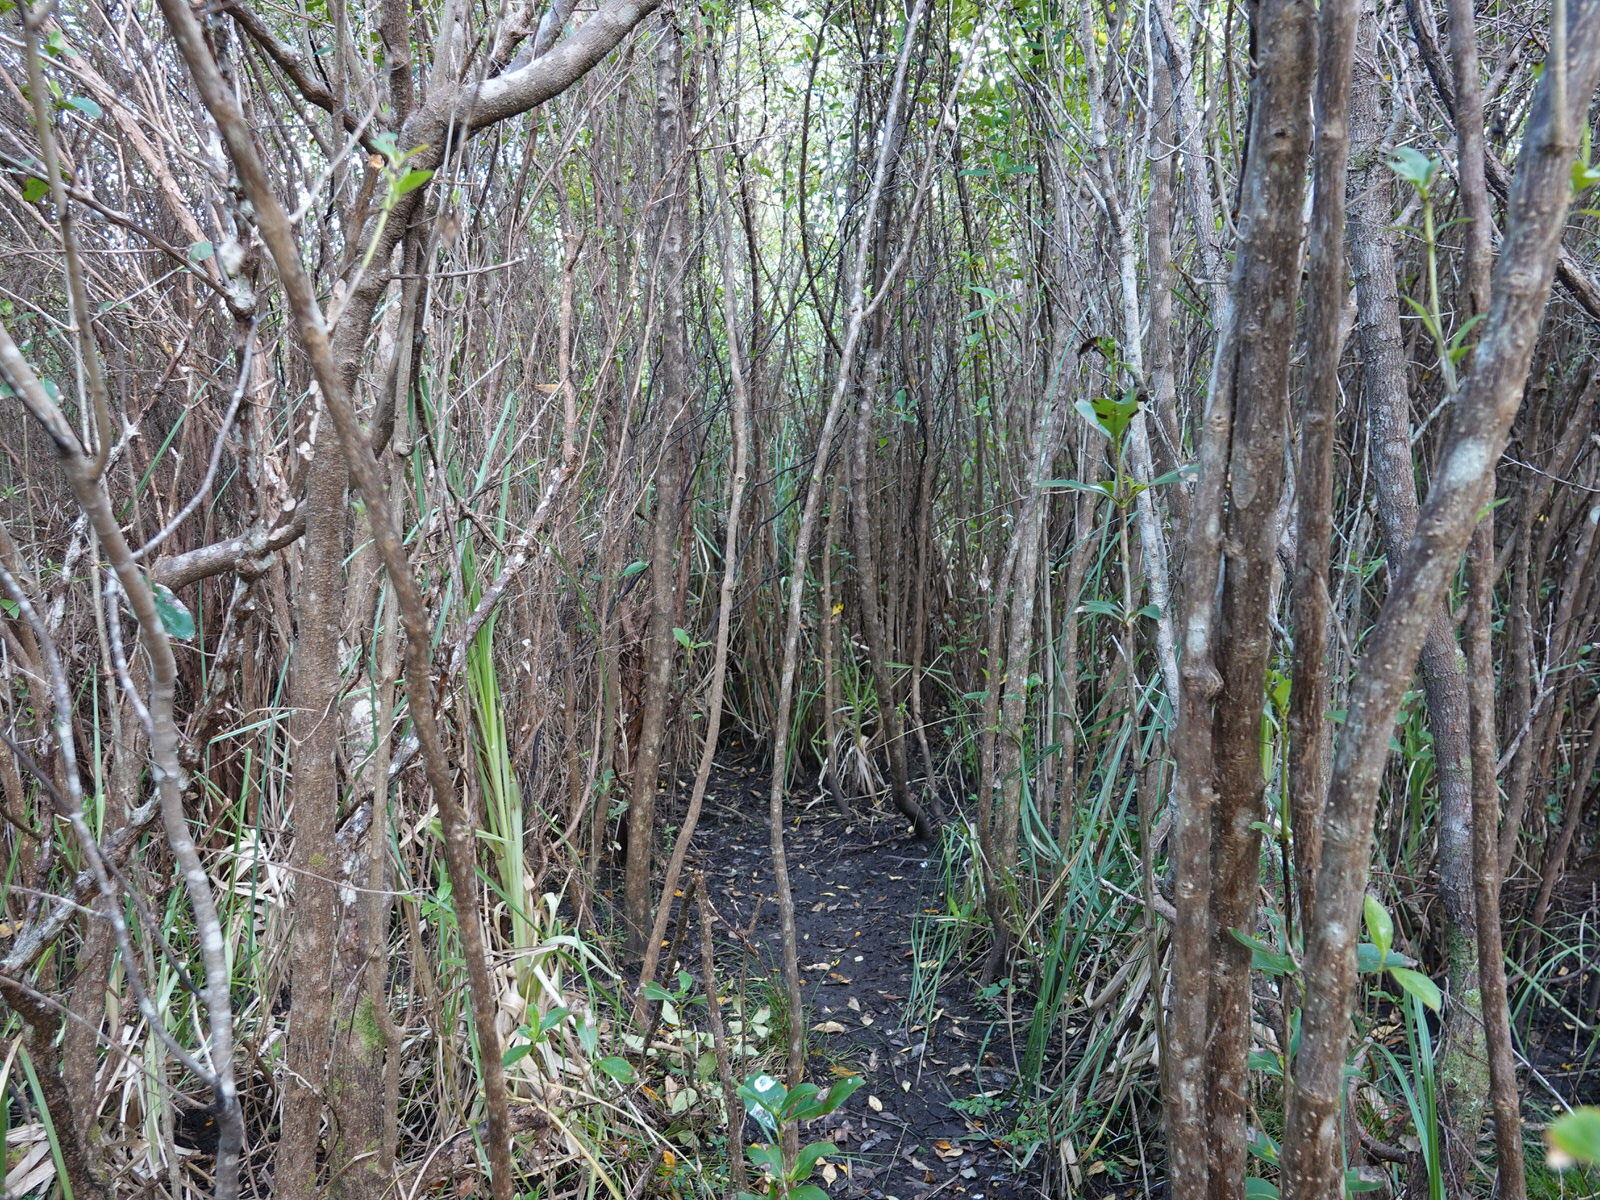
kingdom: Plantae
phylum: Tracheophyta
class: Magnoliopsida
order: Gentianales
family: Rubiaceae
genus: Coprosma
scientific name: Coprosma robusta
